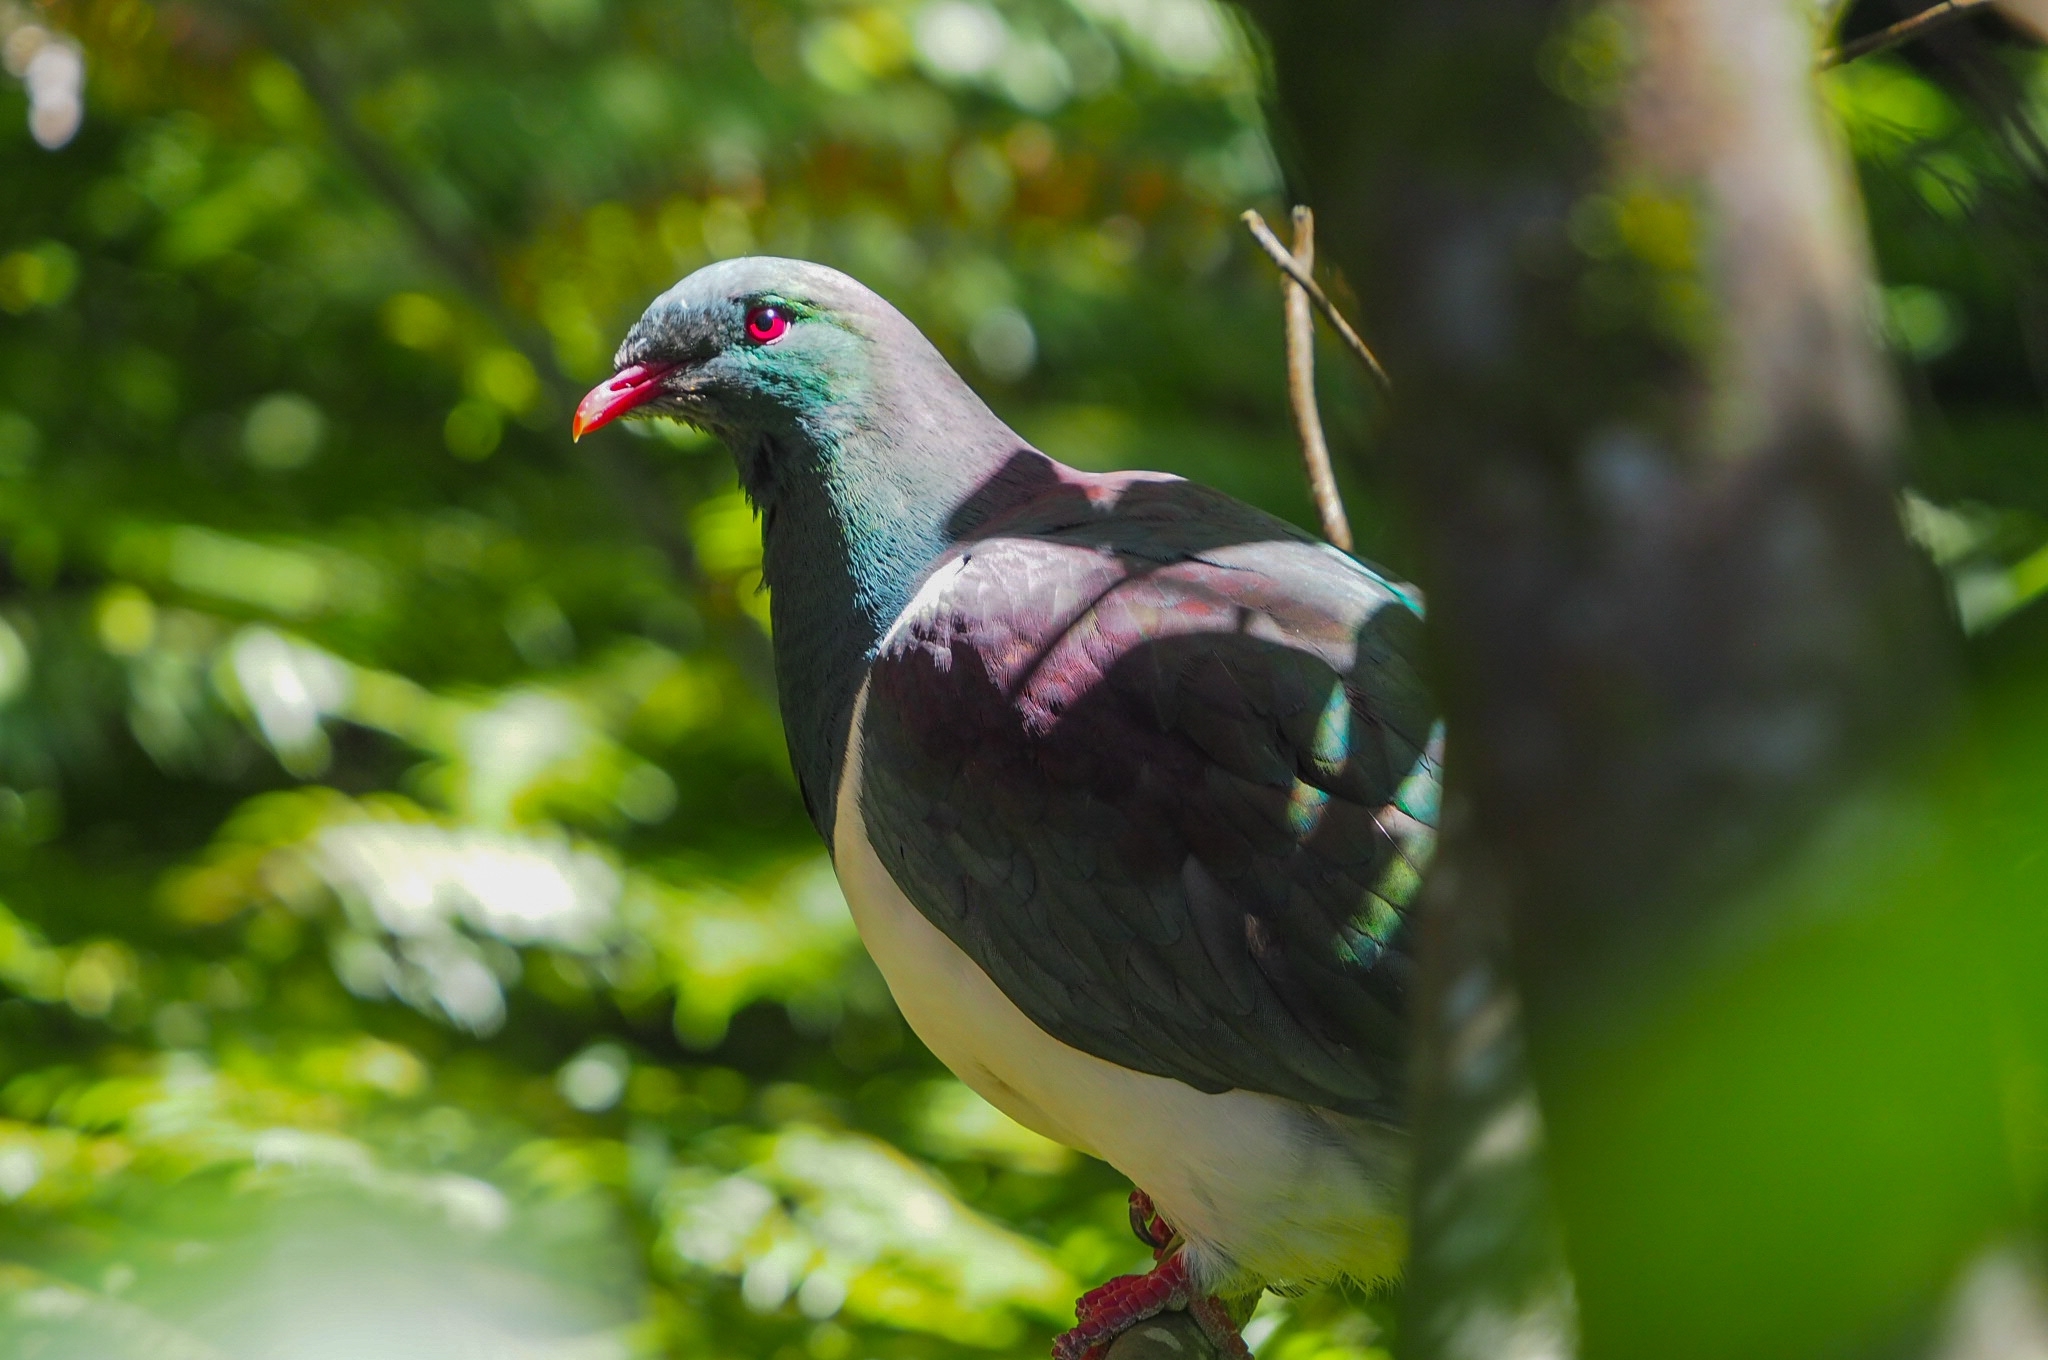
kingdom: Animalia
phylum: Chordata
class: Aves
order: Columbiformes
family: Columbidae
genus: Hemiphaga
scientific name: Hemiphaga novaeseelandiae
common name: New zealand pigeon
